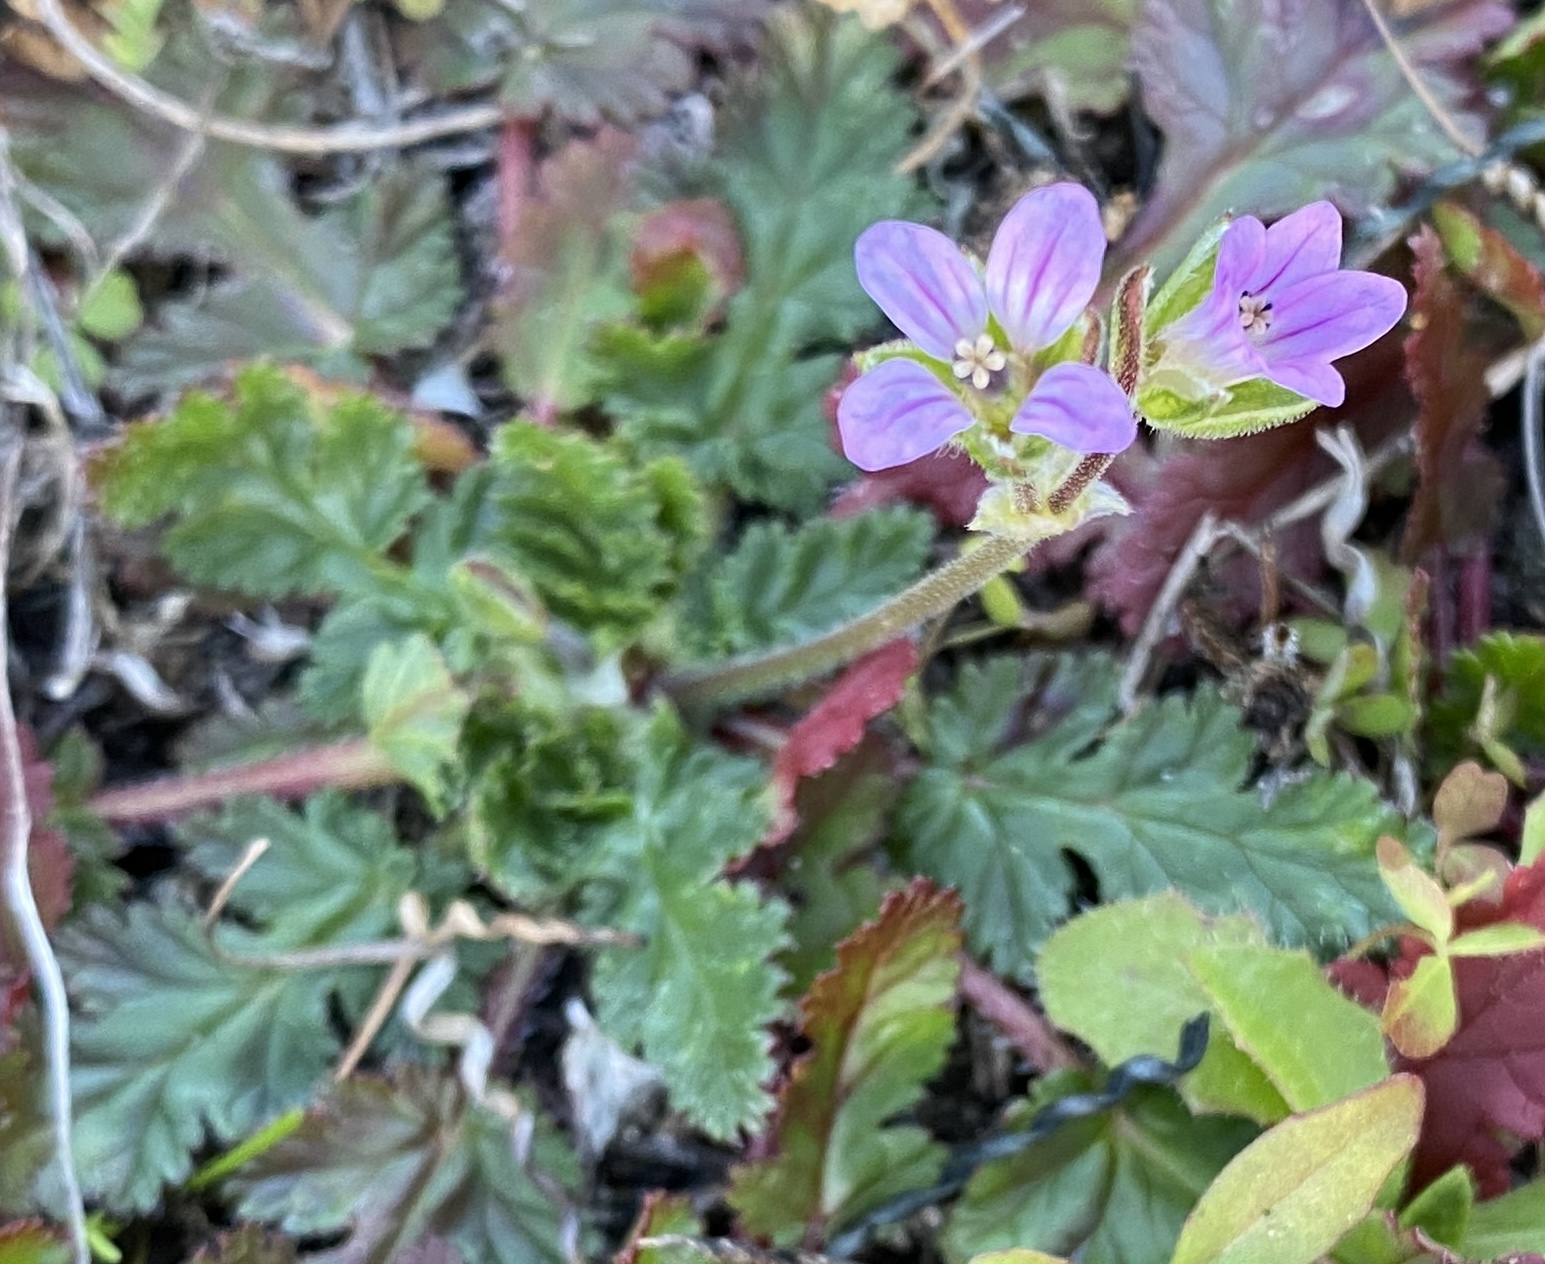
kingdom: Plantae
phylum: Tracheophyta
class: Magnoliopsida
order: Geraniales
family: Geraniaceae
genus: Erodium
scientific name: Erodium botrys
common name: Mediterranean stork's-bill
